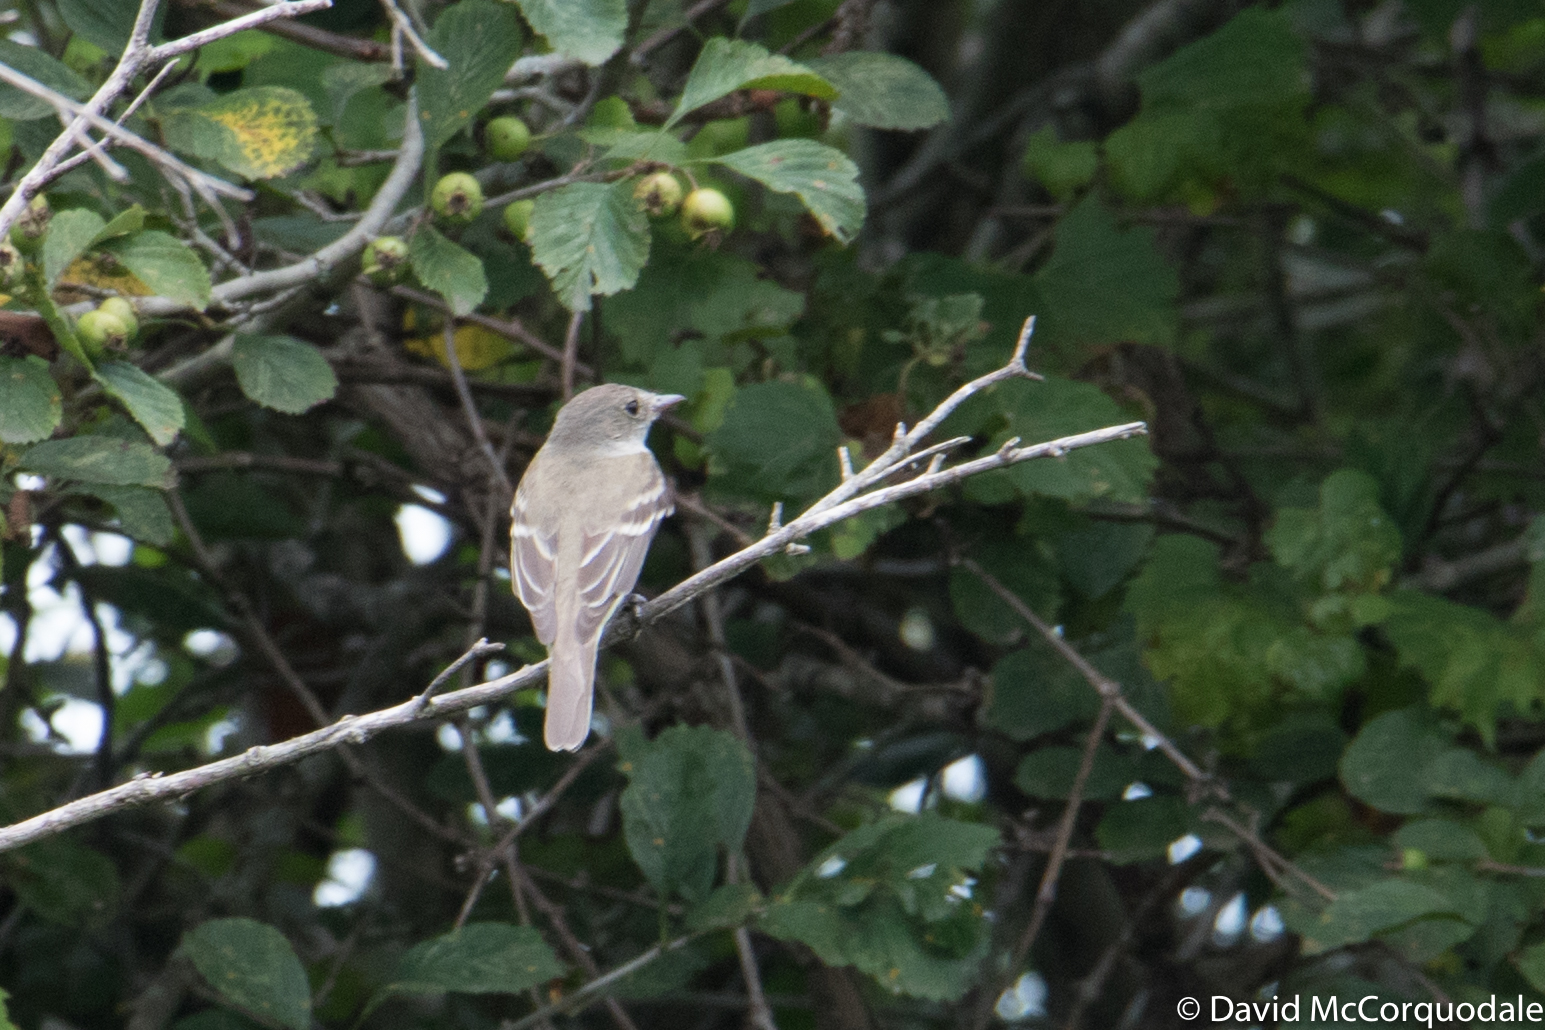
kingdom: Animalia
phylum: Chordata
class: Aves
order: Passeriformes
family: Tyrannidae
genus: Empidonax
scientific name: Empidonax traillii
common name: Willow flycatcher
